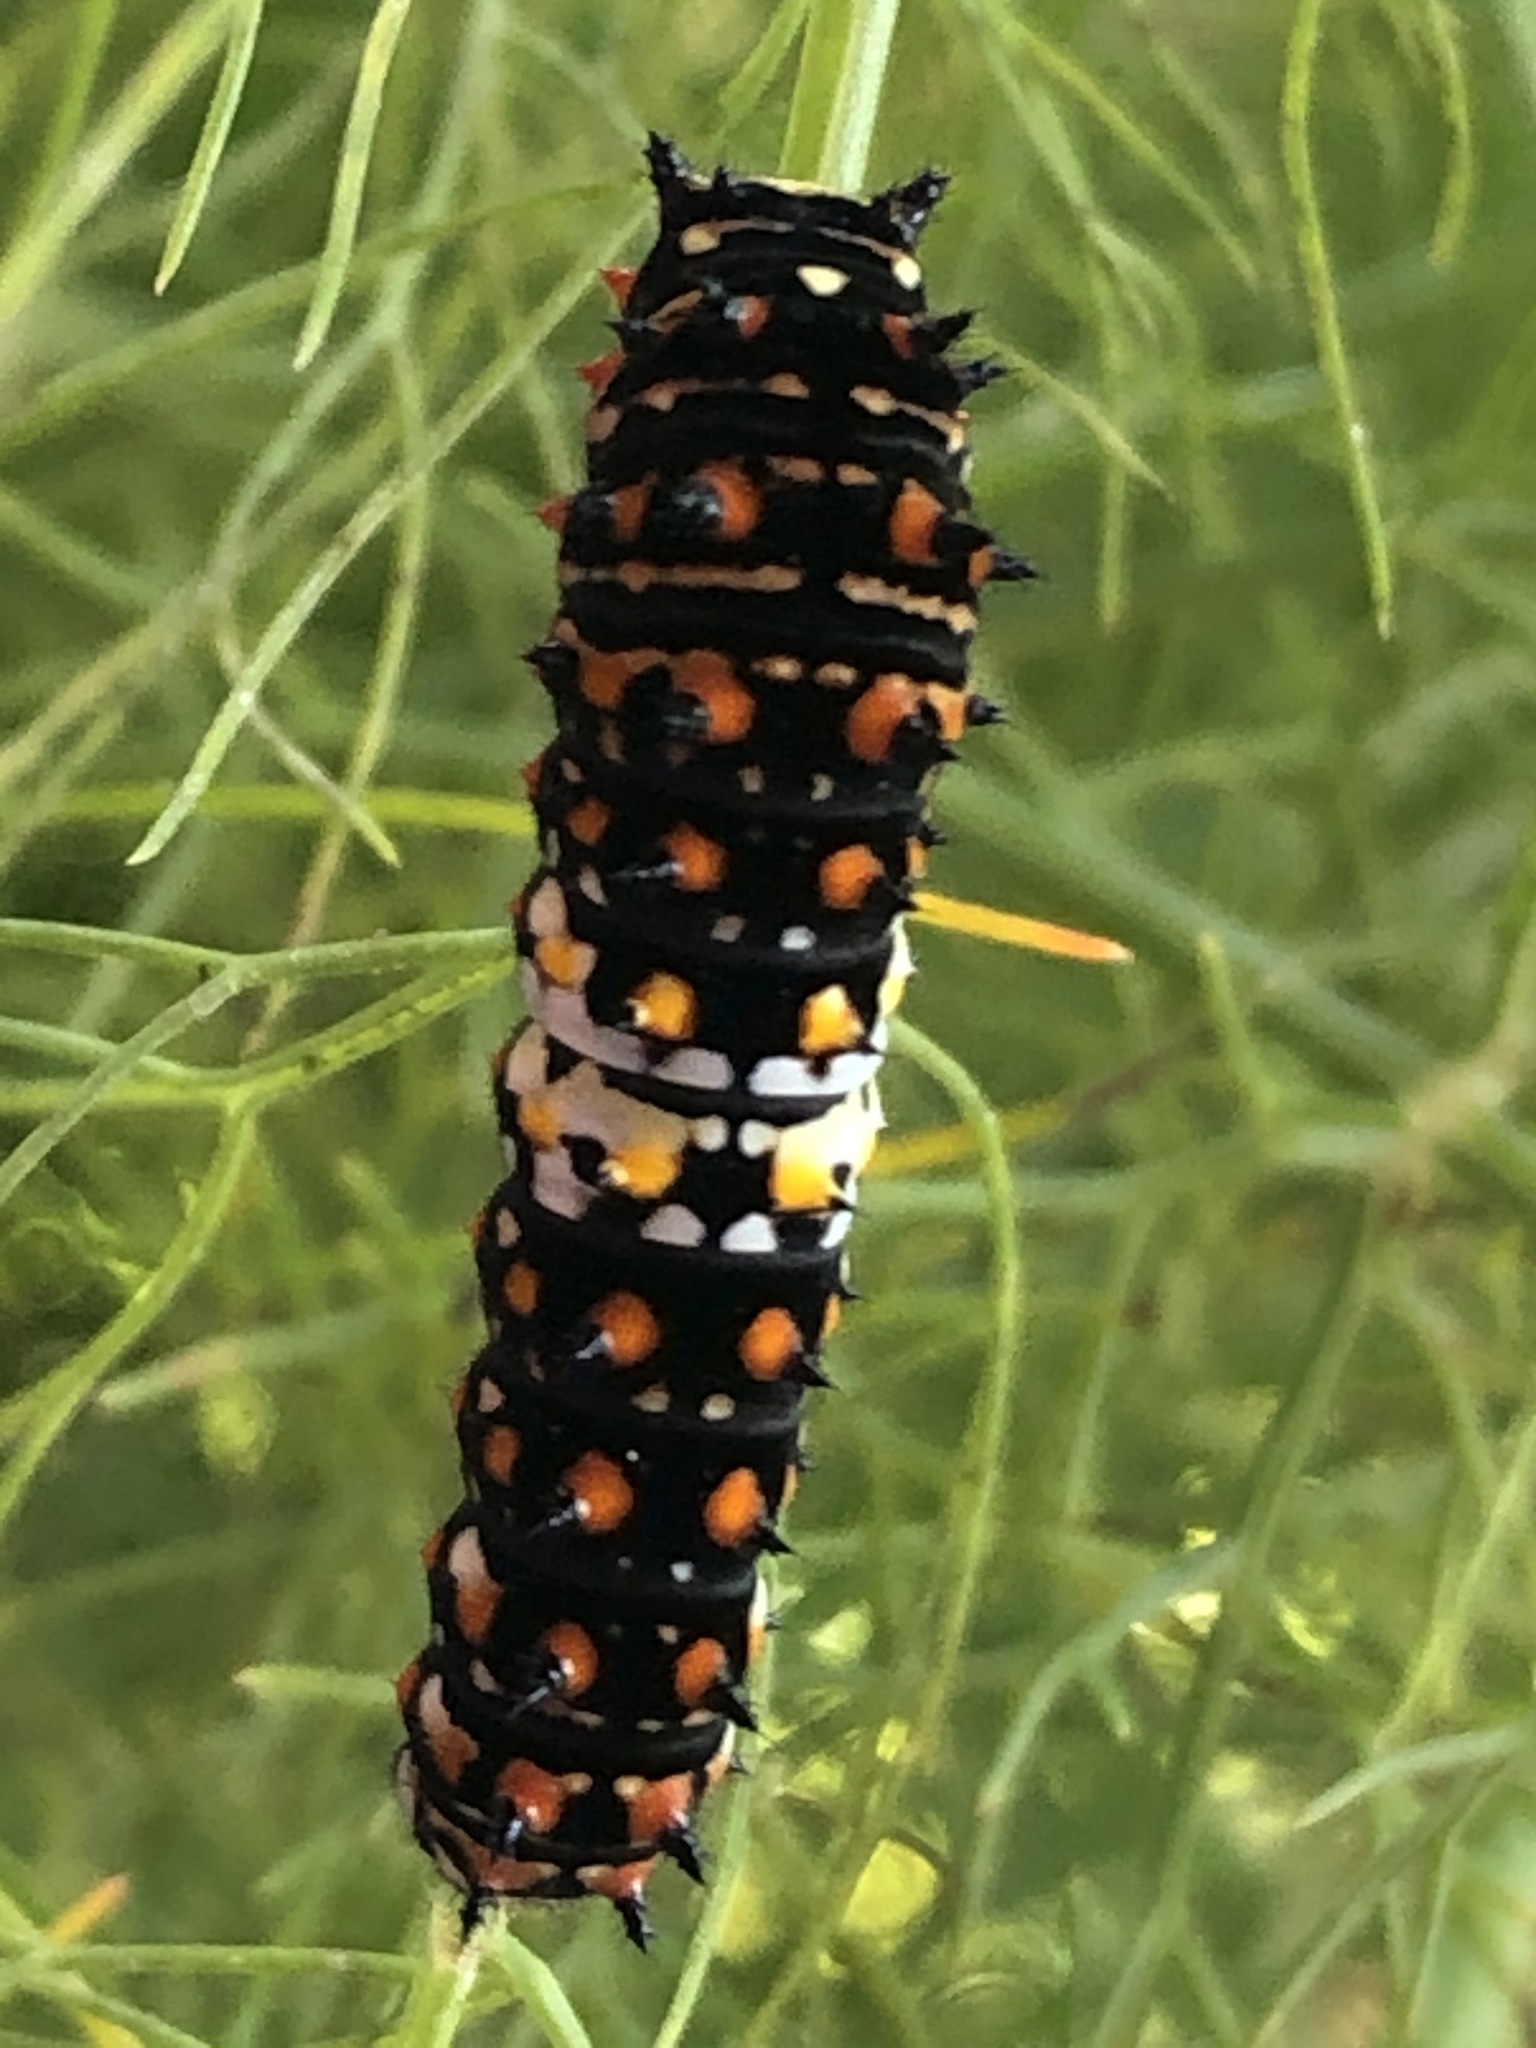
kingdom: Animalia
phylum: Arthropoda
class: Insecta
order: Lepidoptera
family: Papilionidae
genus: Papilio
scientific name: Papilio zelicaon
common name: Anise swallowtail
